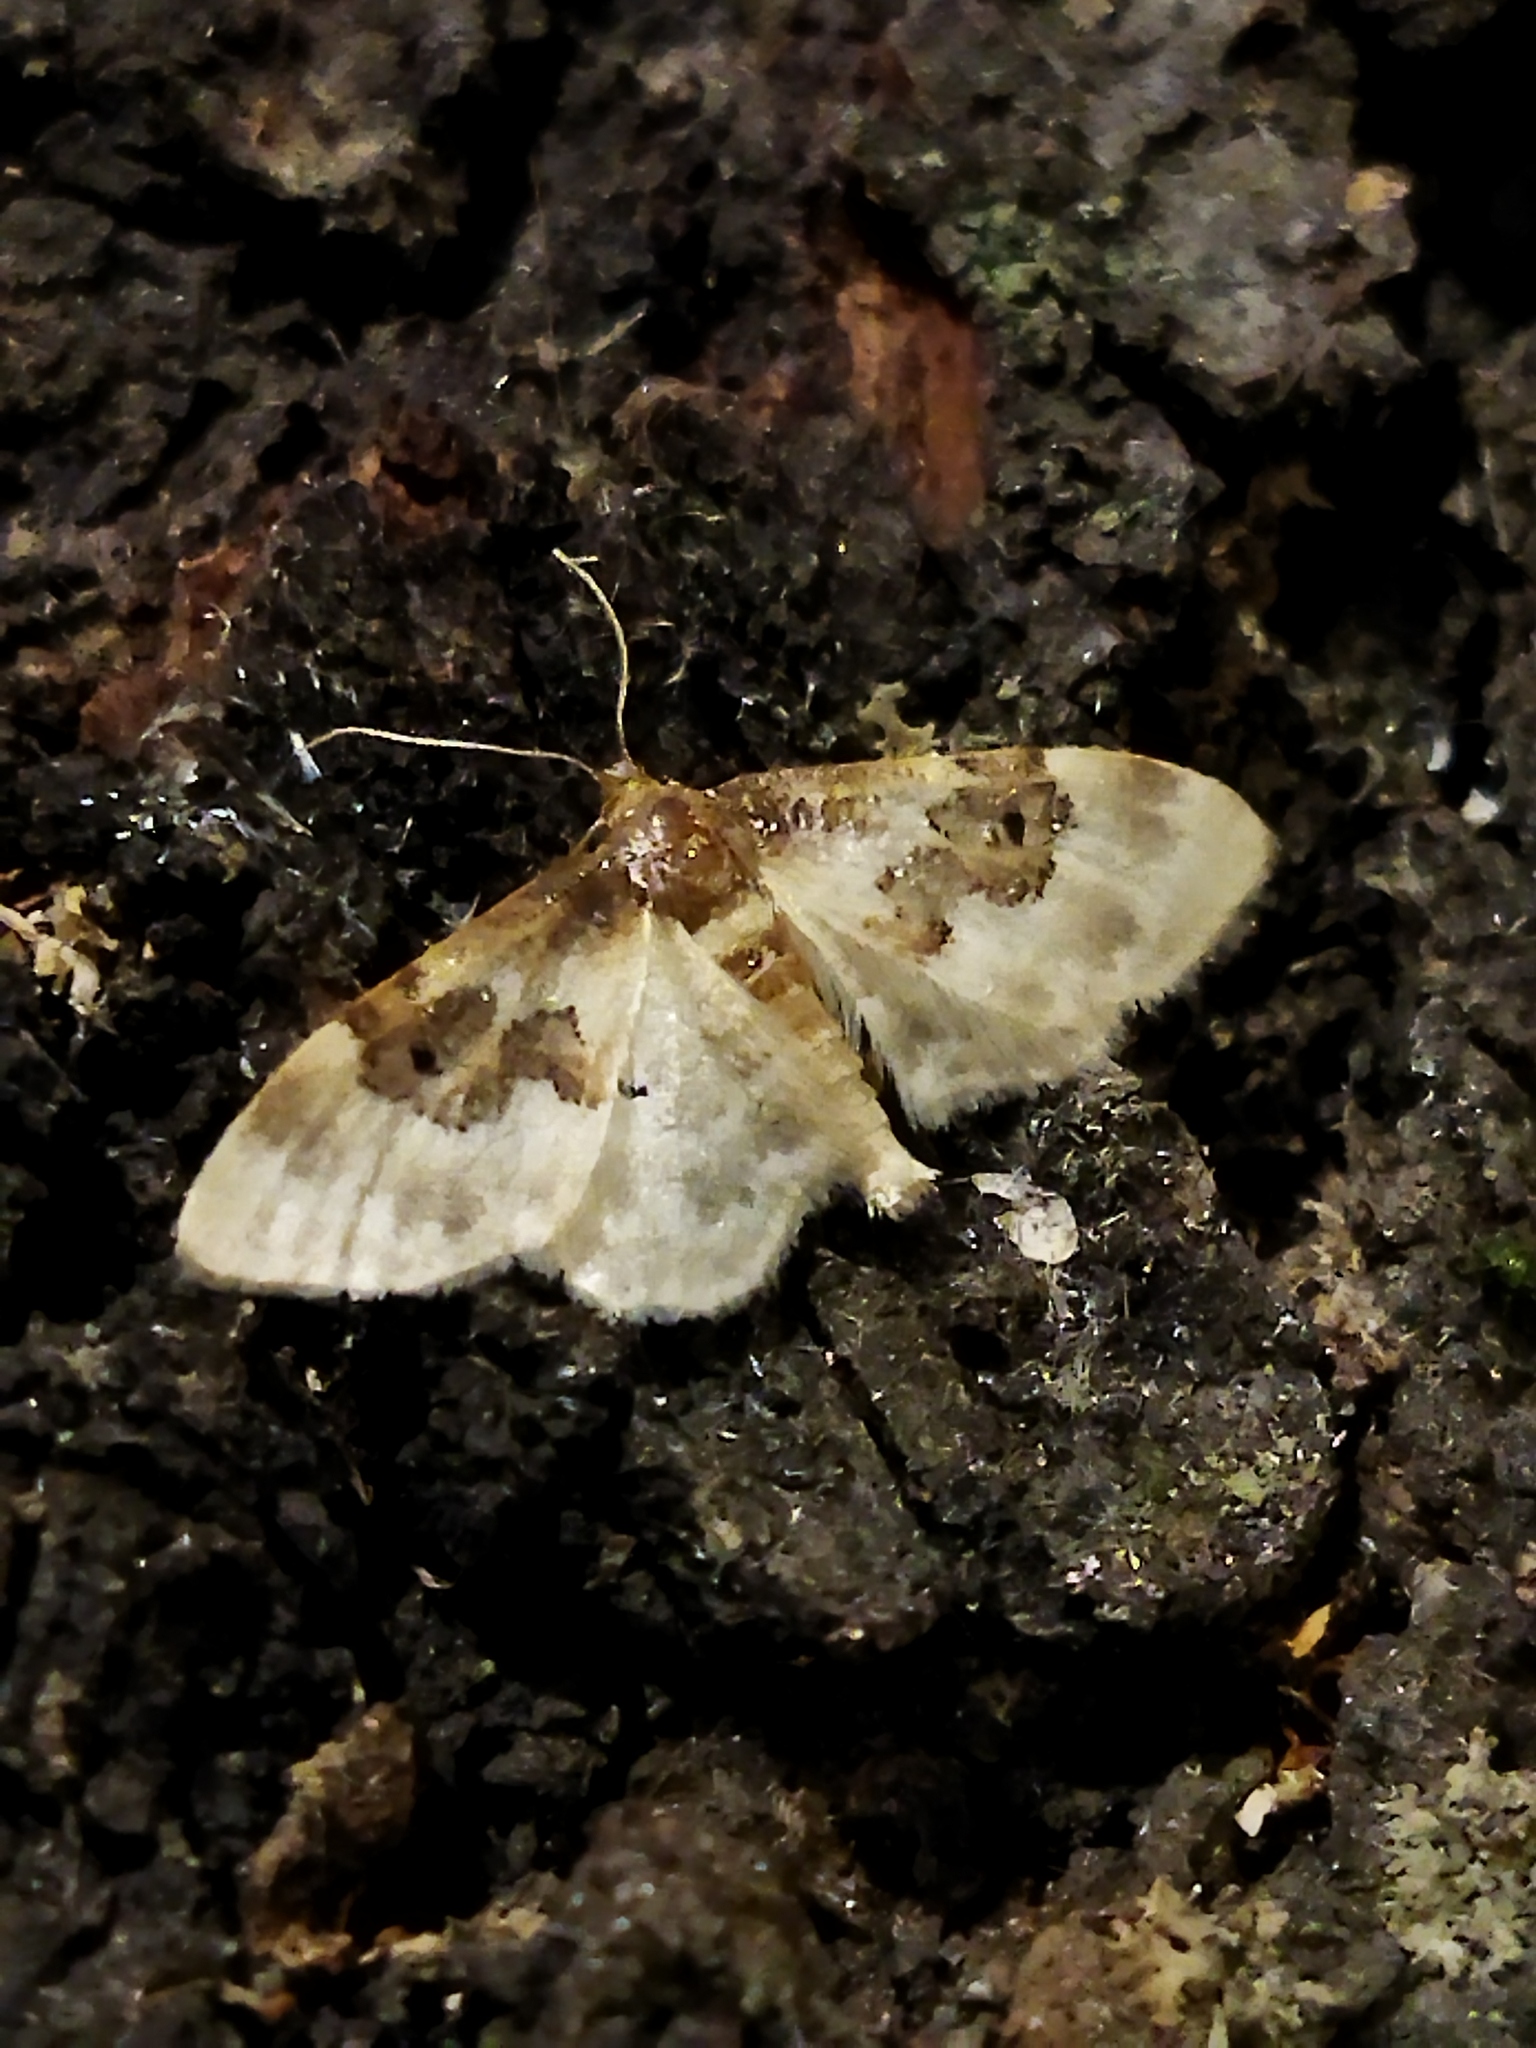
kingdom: Animalia
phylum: Arthropoda
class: Insecta
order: Lepidoptera
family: Geometridae
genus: Idaea
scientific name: Idaea rusticata
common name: Least carpet
